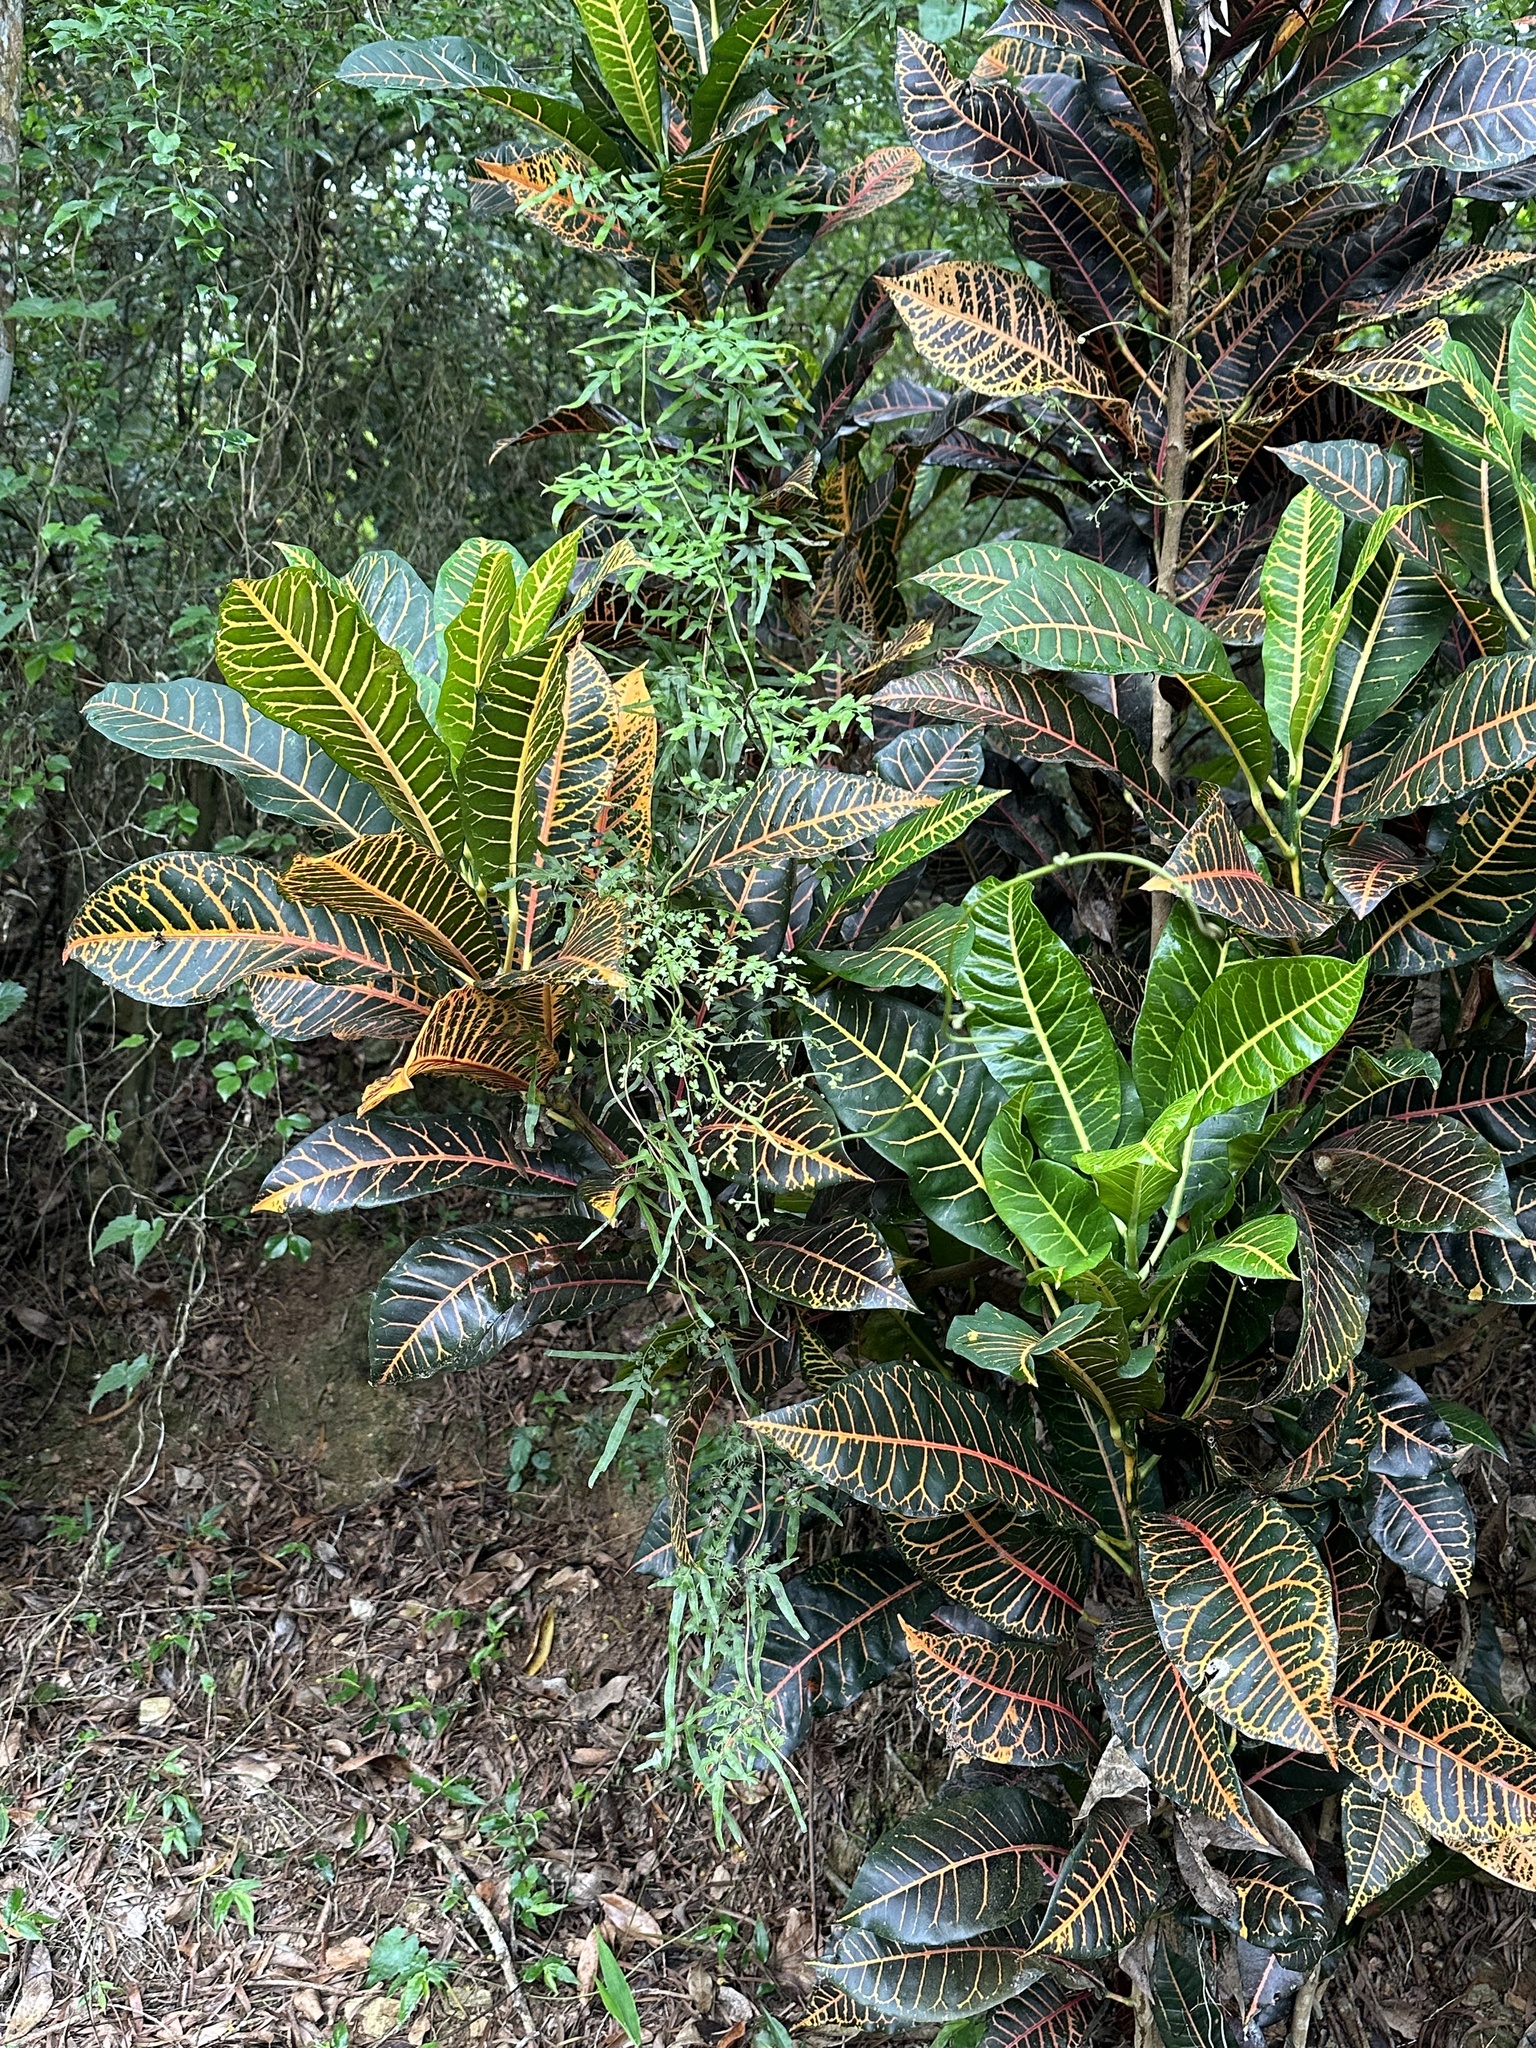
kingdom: Plantae
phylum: Tracheophyta
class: Polypodiopsida
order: Schizaeales
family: Lygodiaceae
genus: Lygodium
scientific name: Lygodium japonicum
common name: Japanese climbing fern
